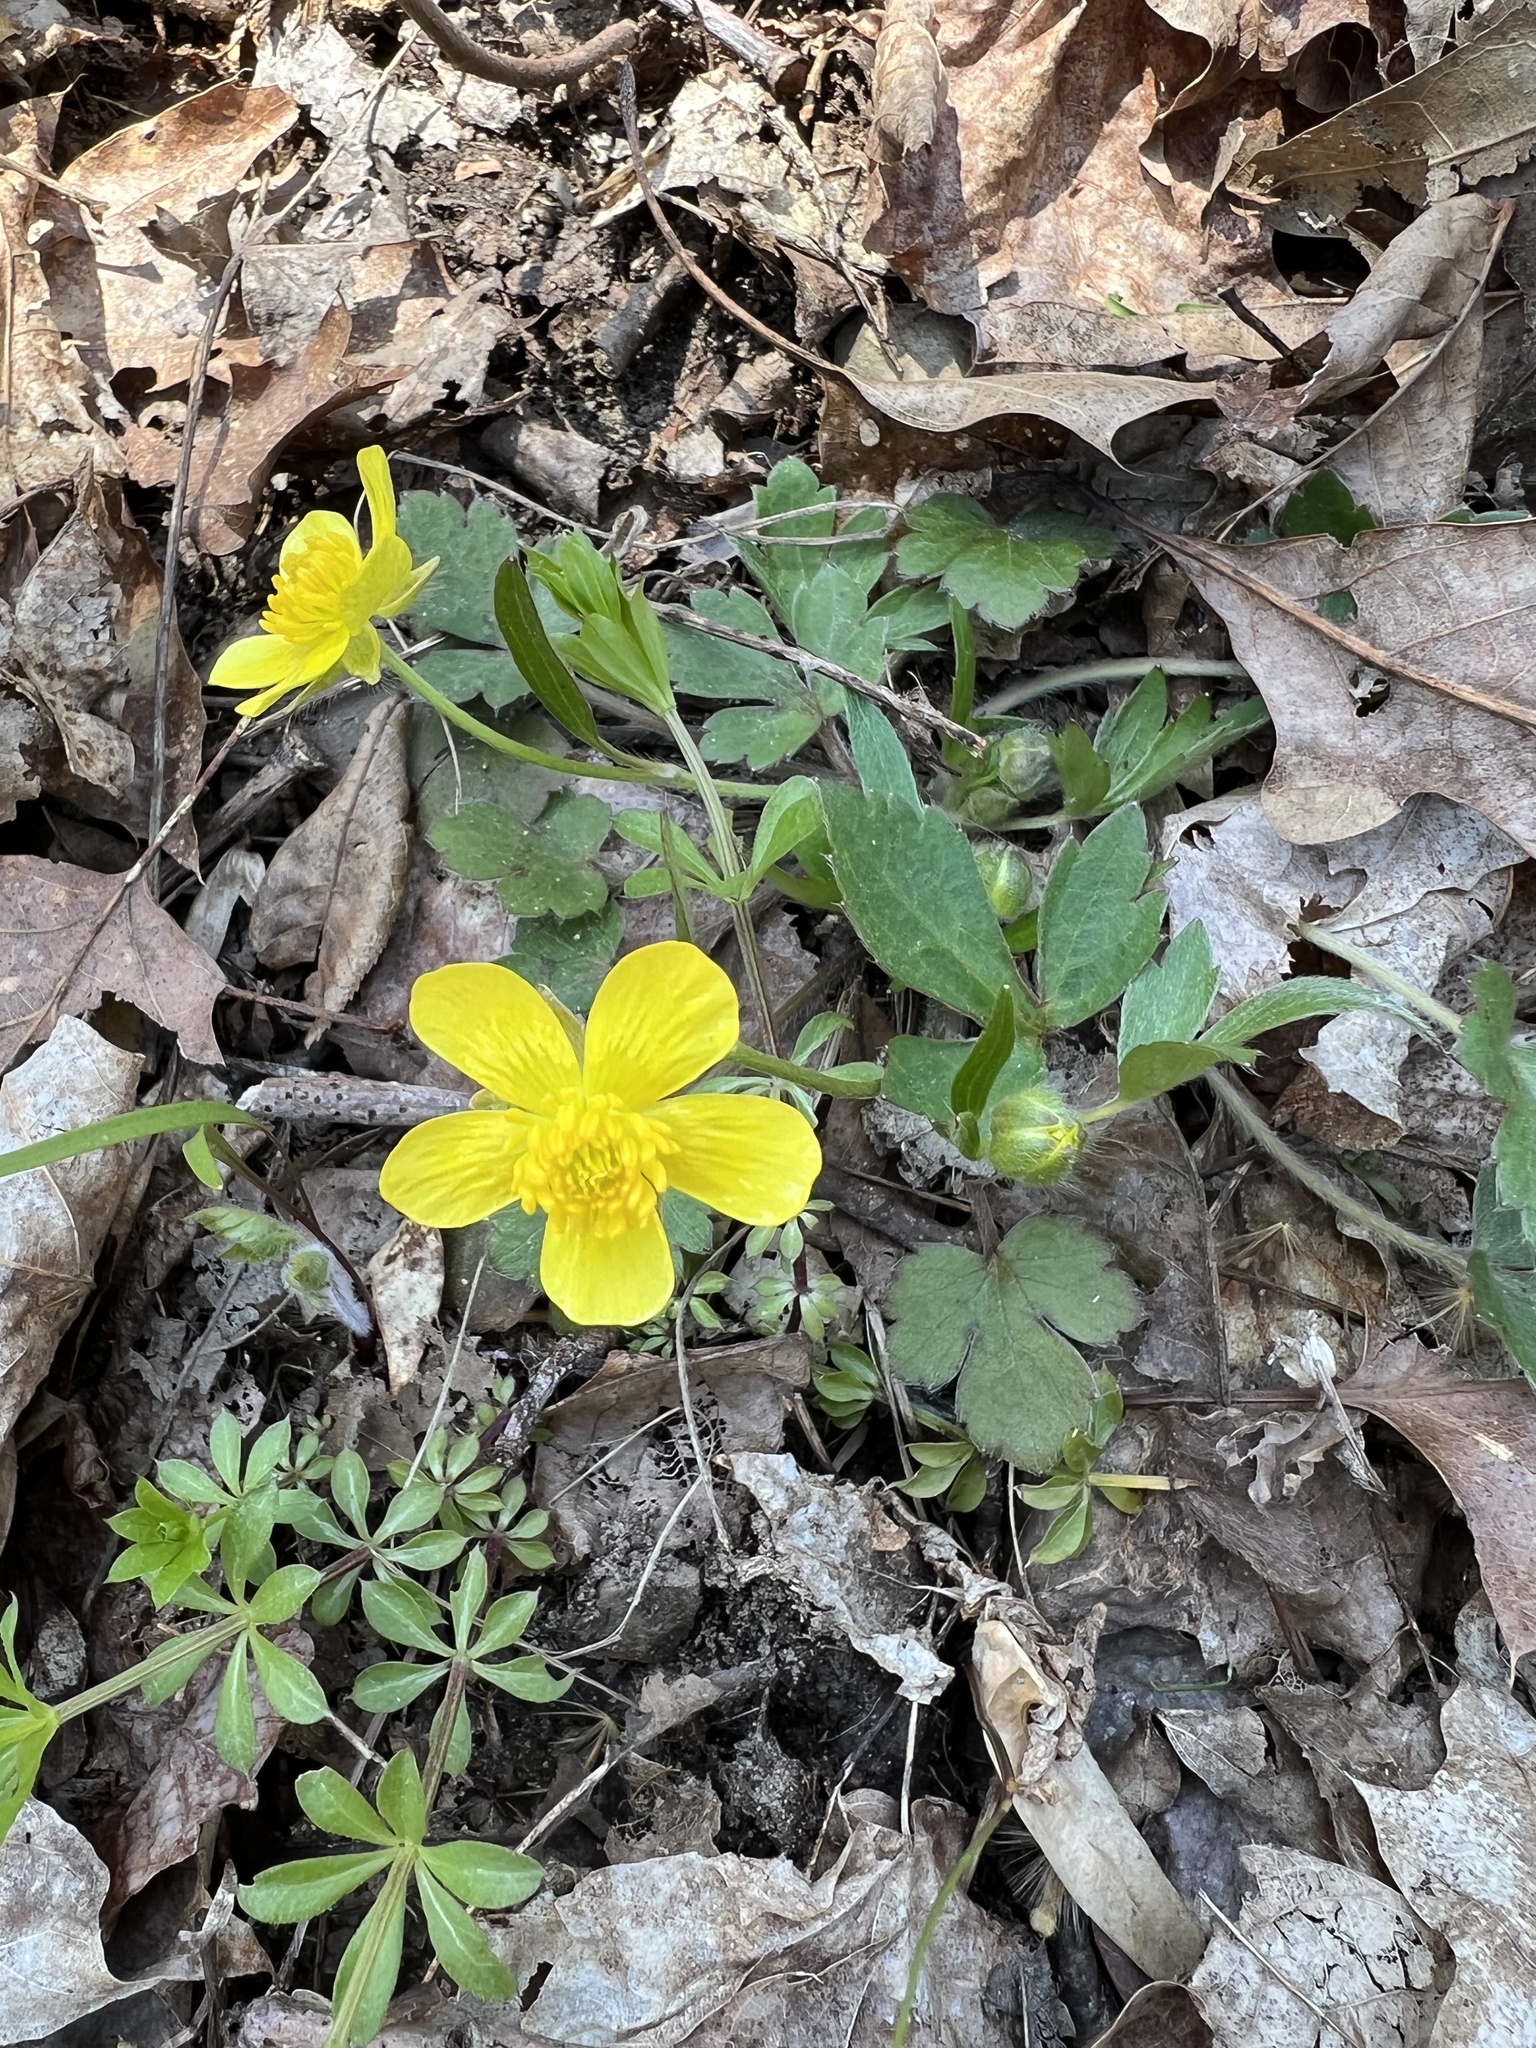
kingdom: Plantae
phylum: Tracheophyta
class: Magnoliopsida
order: Ranunculales
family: Ranunculaceae
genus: Ranunculus
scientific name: Ranunculus hispidus
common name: Bristly buttercup
